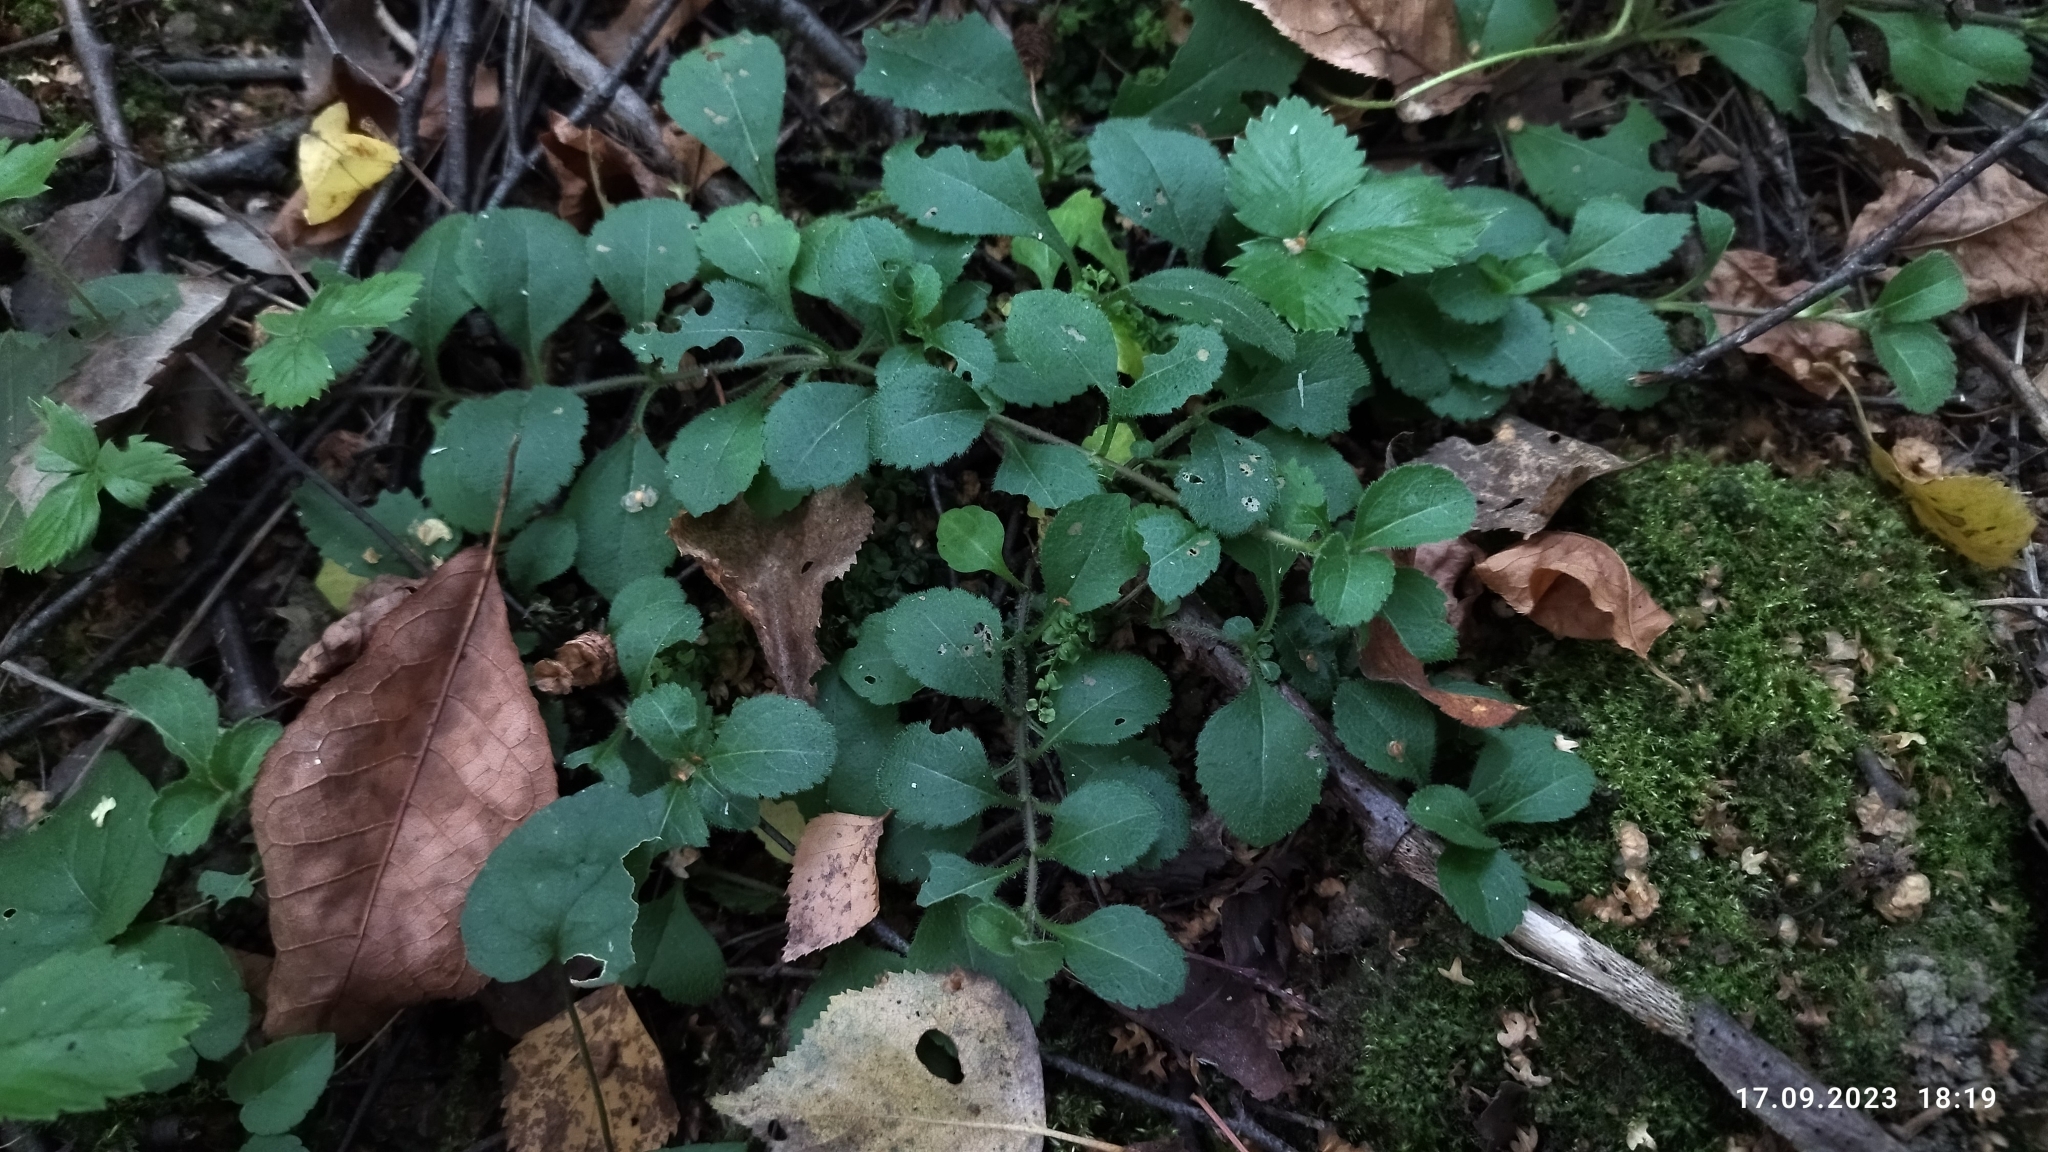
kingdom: Plantae
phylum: Tracheophyta
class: Magnoliopsida
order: Lamiales
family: Plantaginaceae
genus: Veronica
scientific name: Veronica officinalis
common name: Common speedwell
